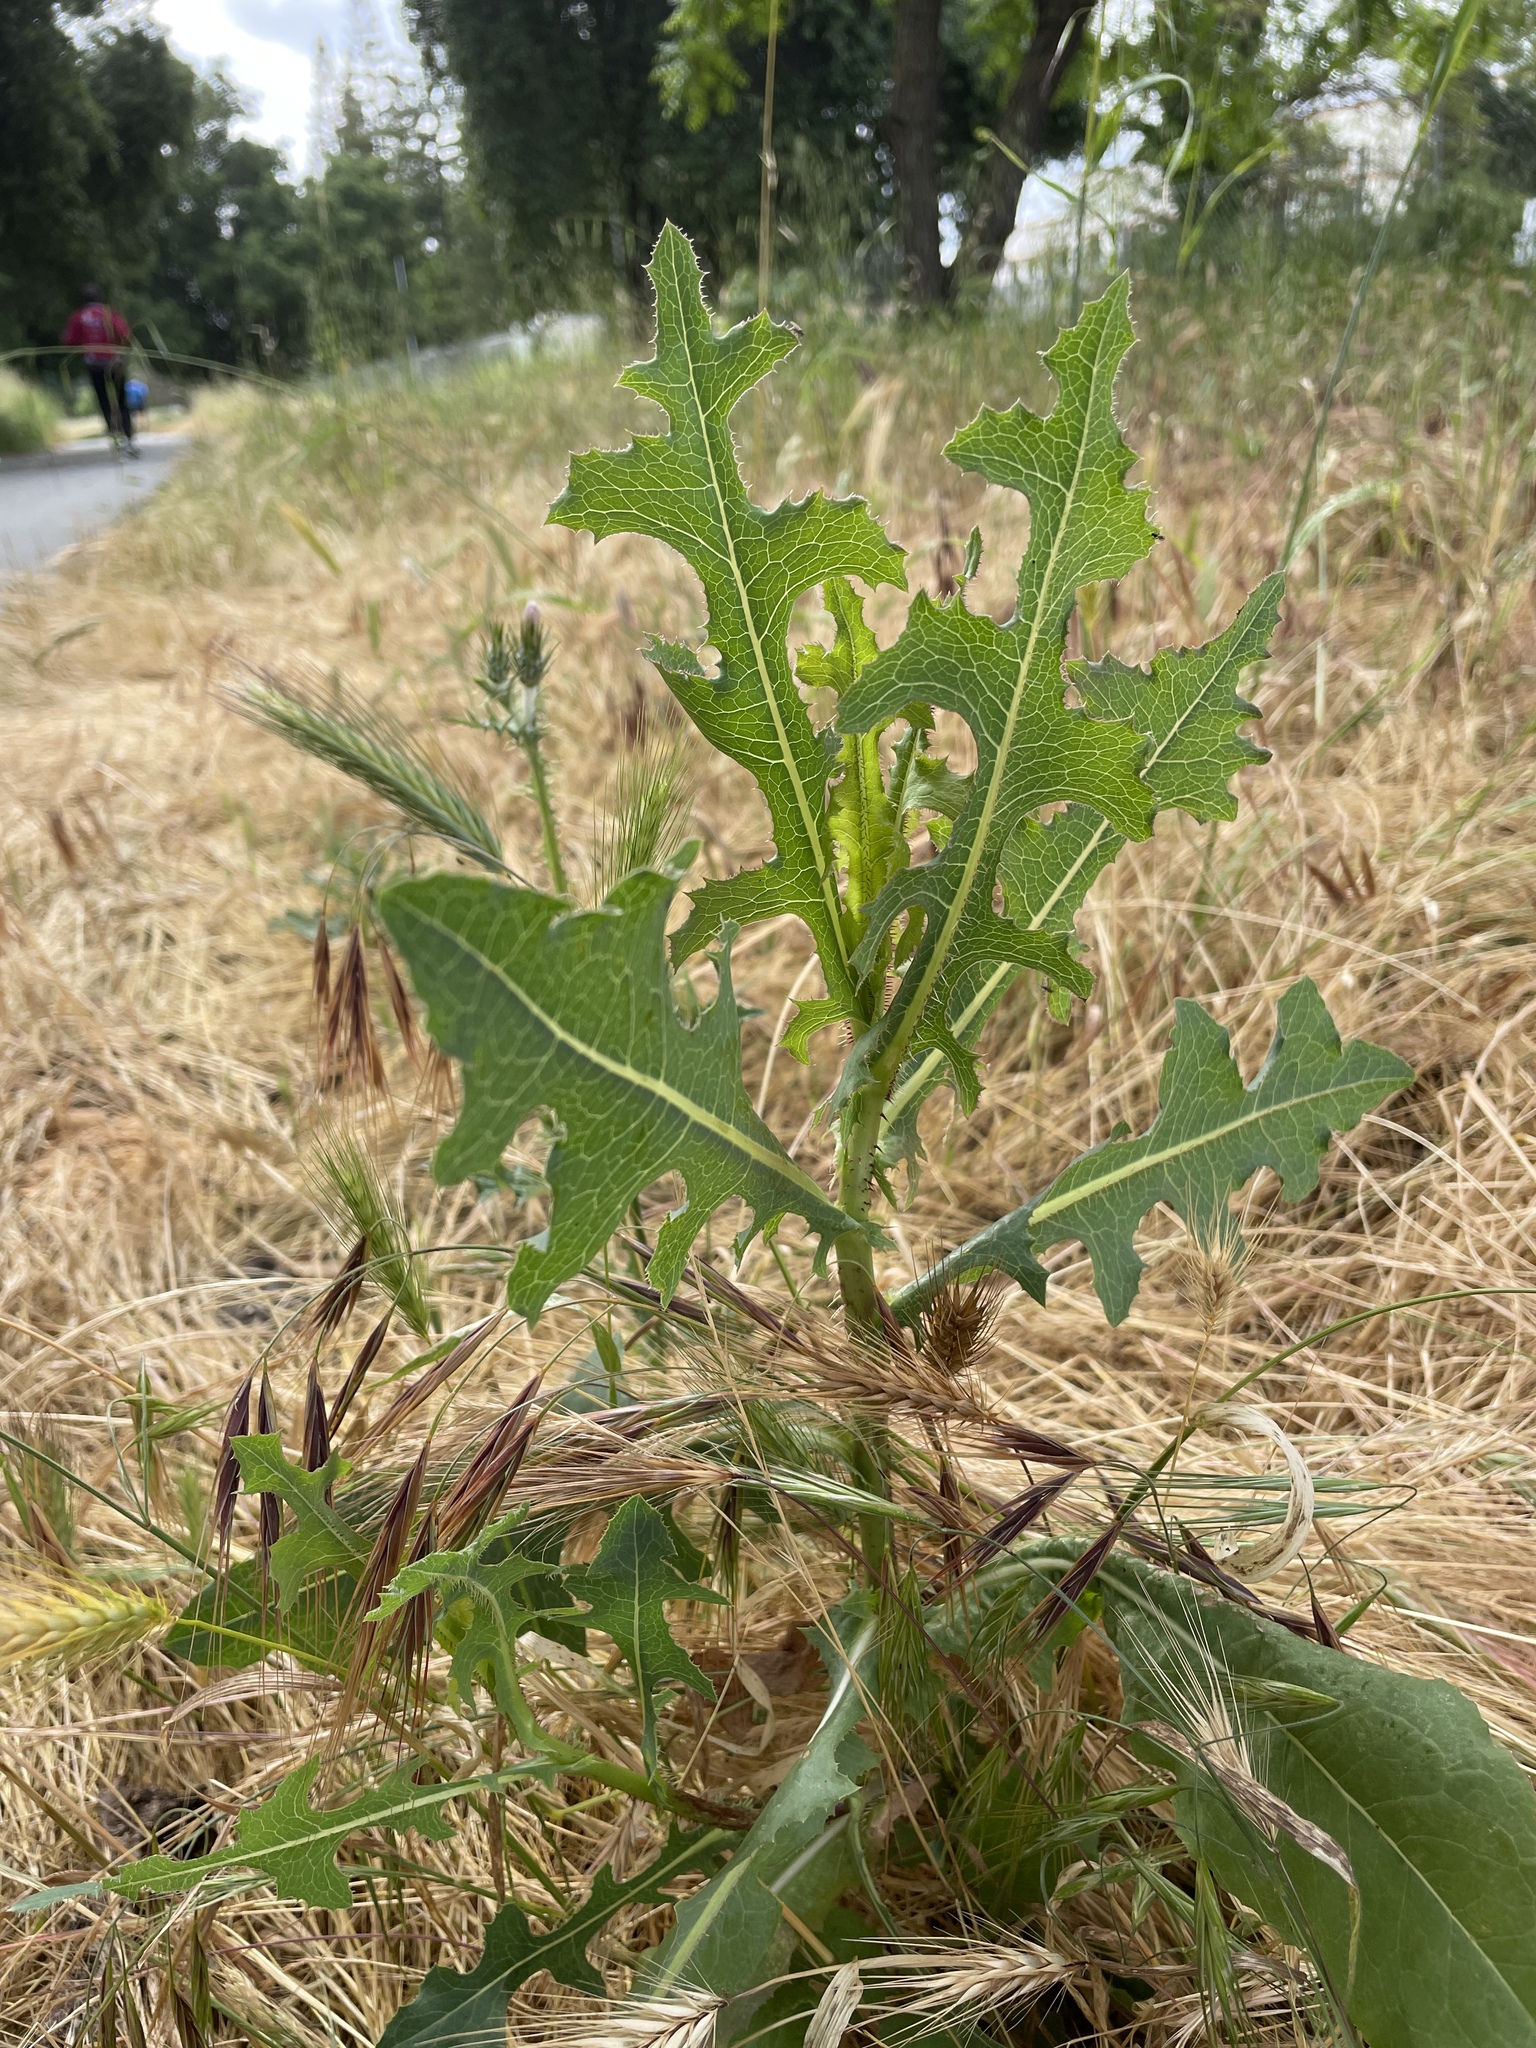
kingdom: Plantae
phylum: Tracheophyta
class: Magnoliopsida
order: Asterales
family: Asteraceae
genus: Lactuca
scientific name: Lactuca serriola
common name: Prickly lettuce
